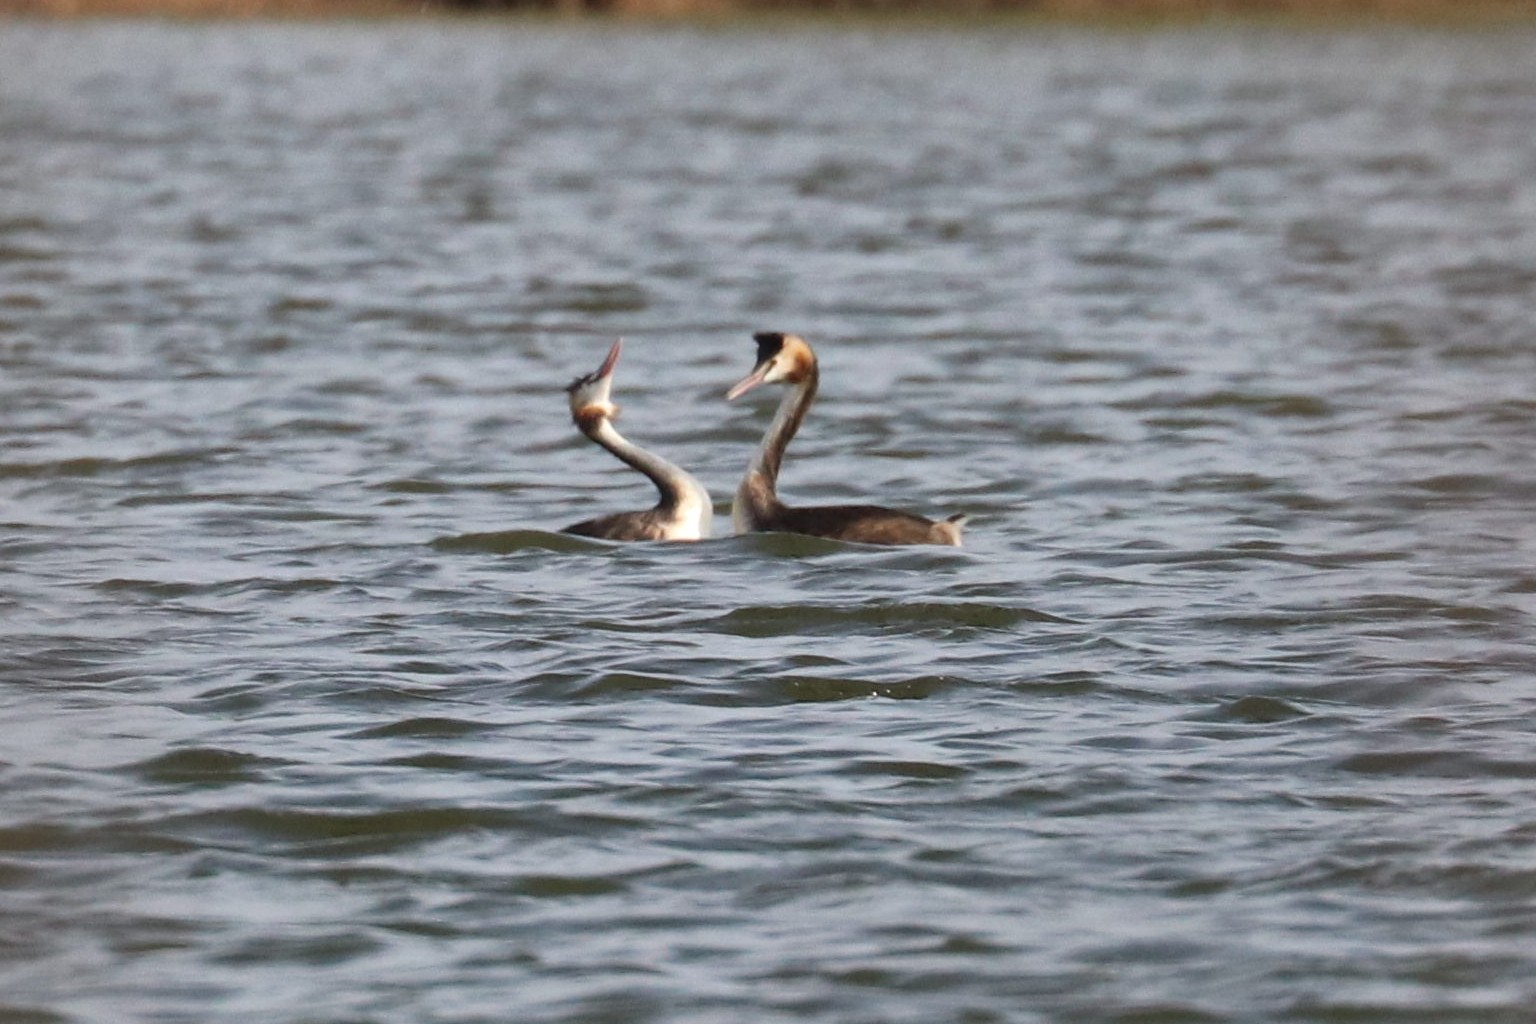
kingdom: Animalia
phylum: Chordata
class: Aves
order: Podicipediformes
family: Podicipedidae
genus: Podiceps
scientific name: Podiceps cristatus
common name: Great crested grebe
